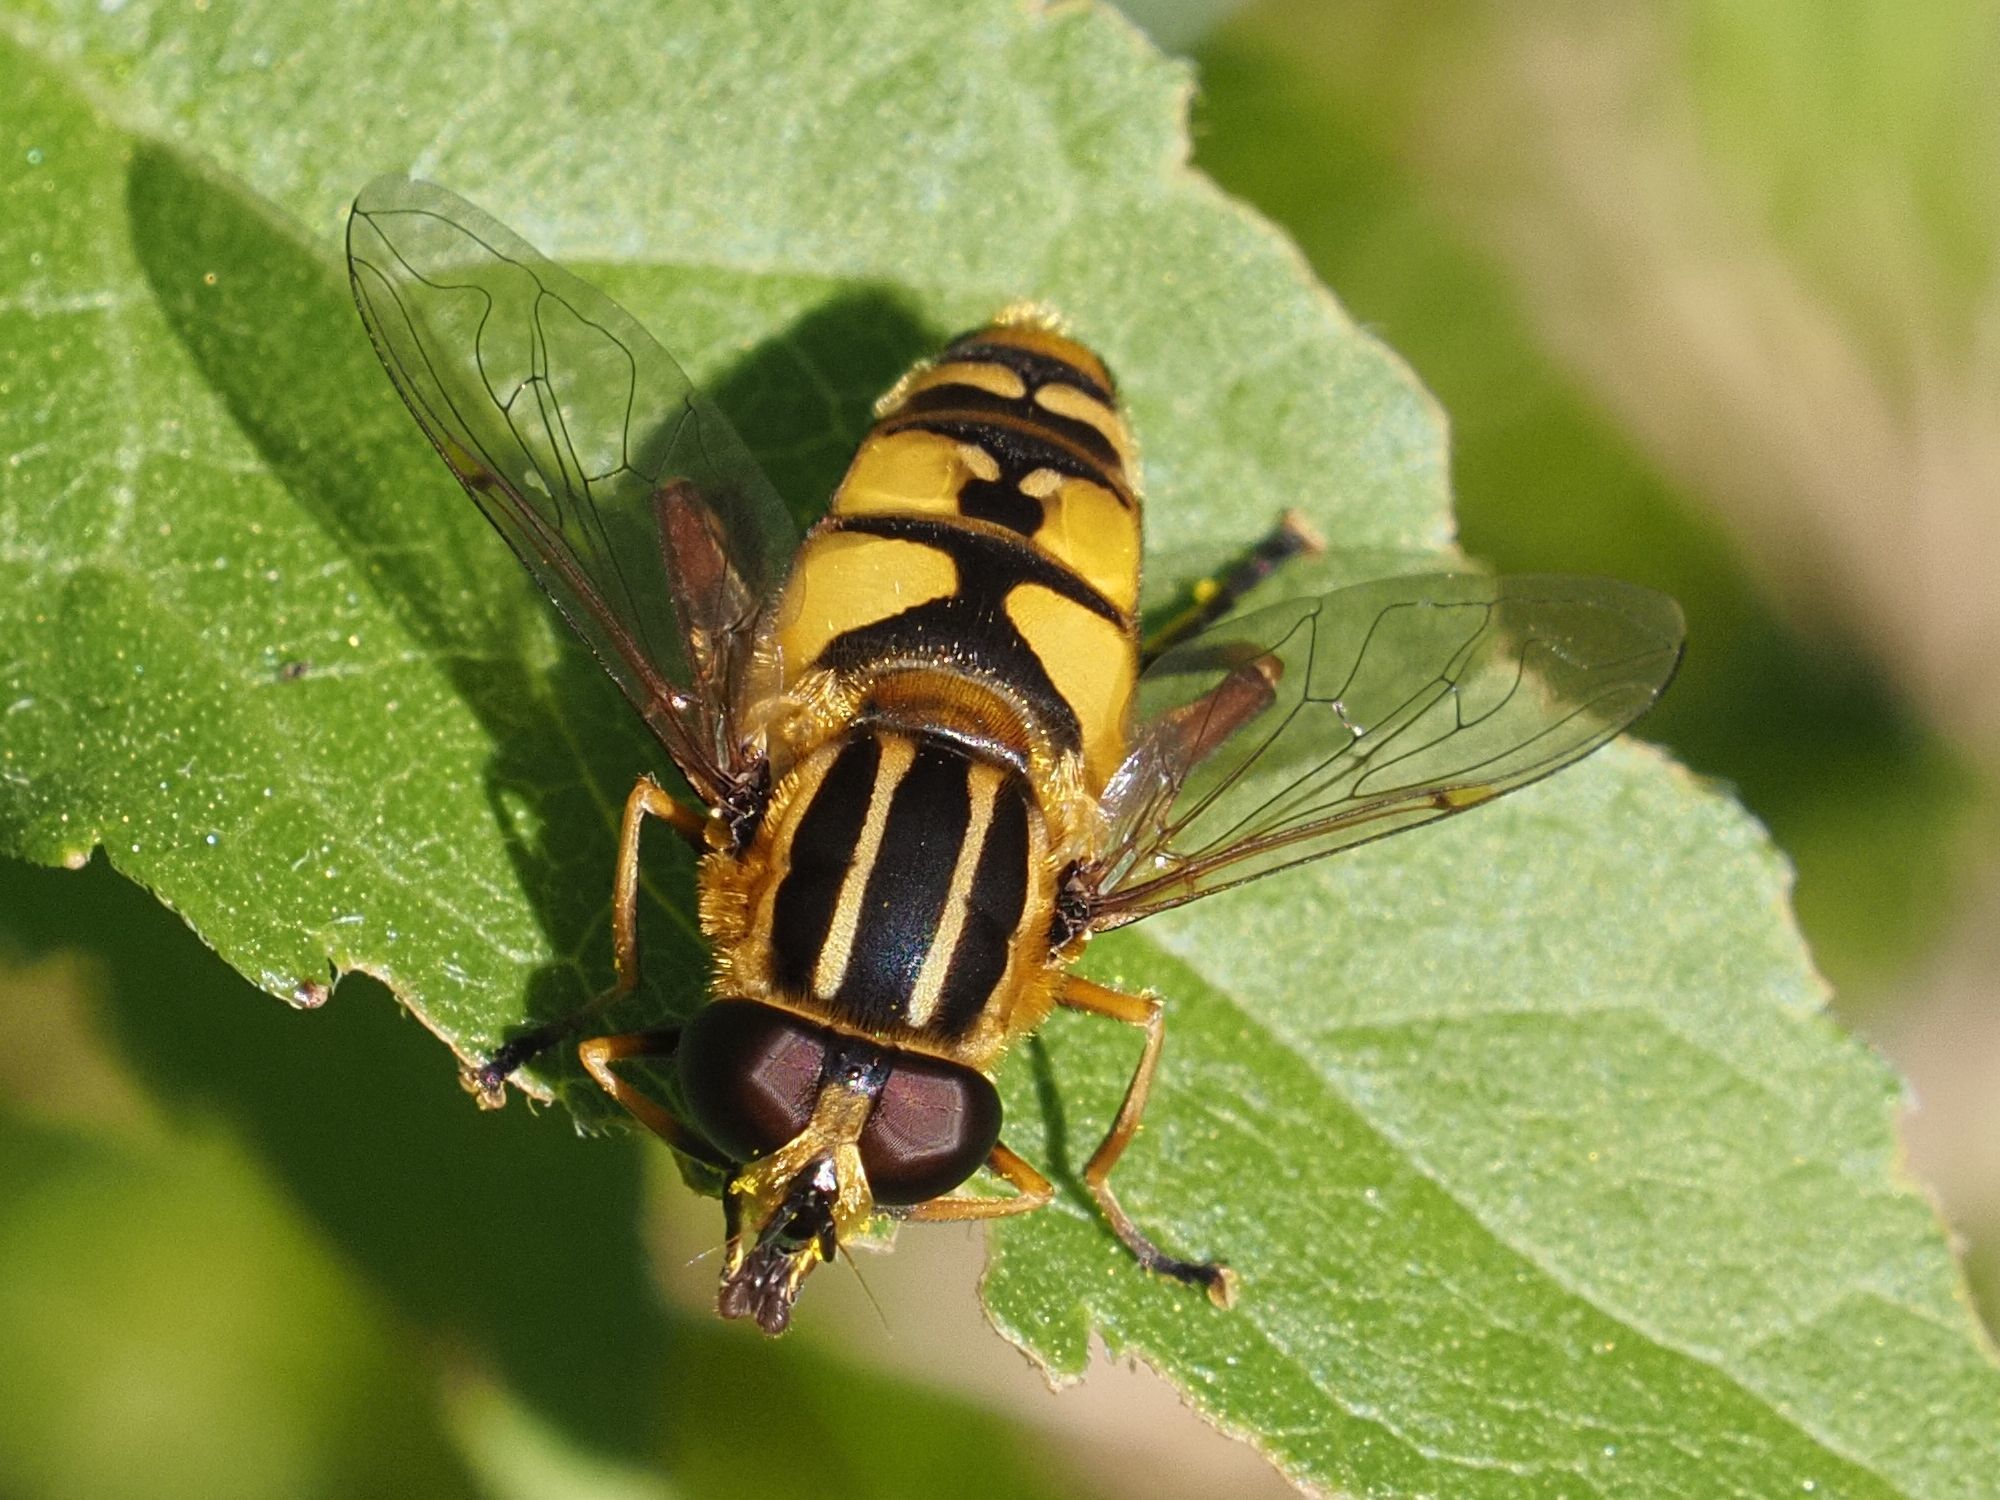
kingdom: Animalia
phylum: Arthropoda
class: Insecta
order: Diptera
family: Syrphidae
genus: Helophilus
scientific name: Helophilus pendulus
